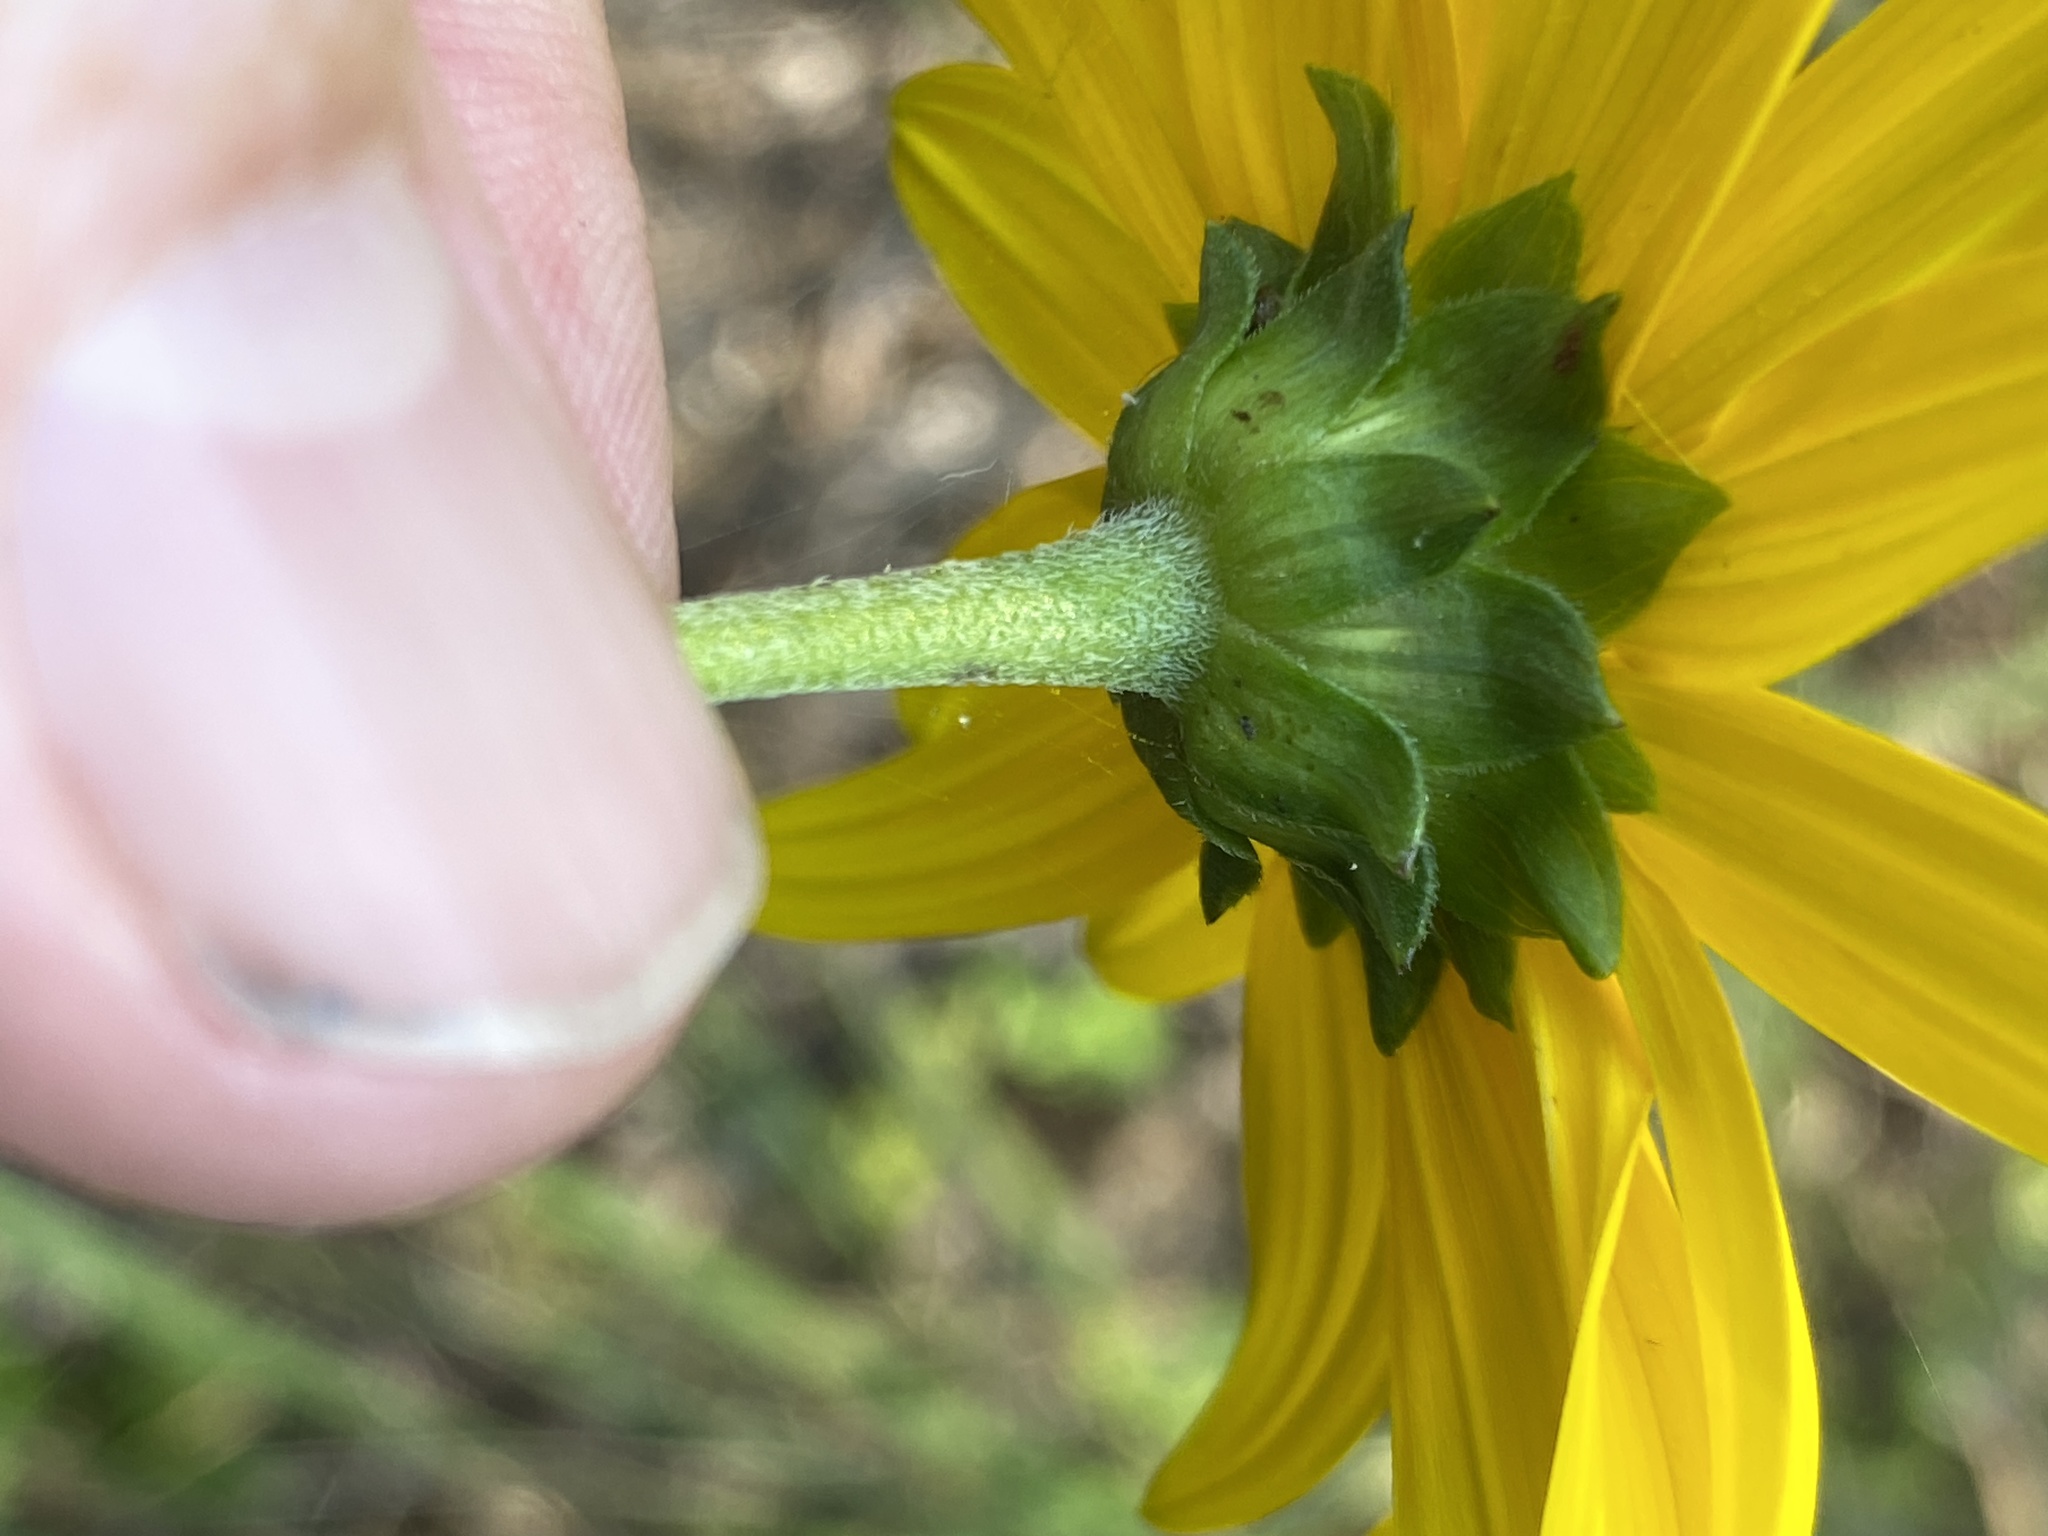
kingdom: Plantae
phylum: Tracheophyta
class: Magnoliopsida
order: Asterales
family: Asteraceae
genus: Helianthus
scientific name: Helianthus atrorubens
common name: Dark-eyed sunflower
